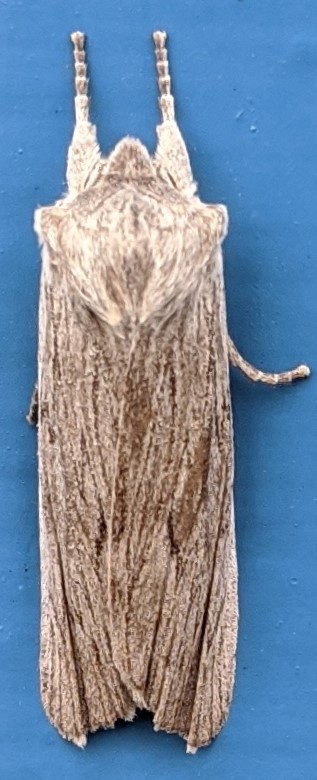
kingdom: Animalia
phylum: Arthropoda
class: Insecta
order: Lepidoptera
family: Noctuidae
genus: Lithophane
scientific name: Lithophane fagina
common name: Hoary pinion moth
